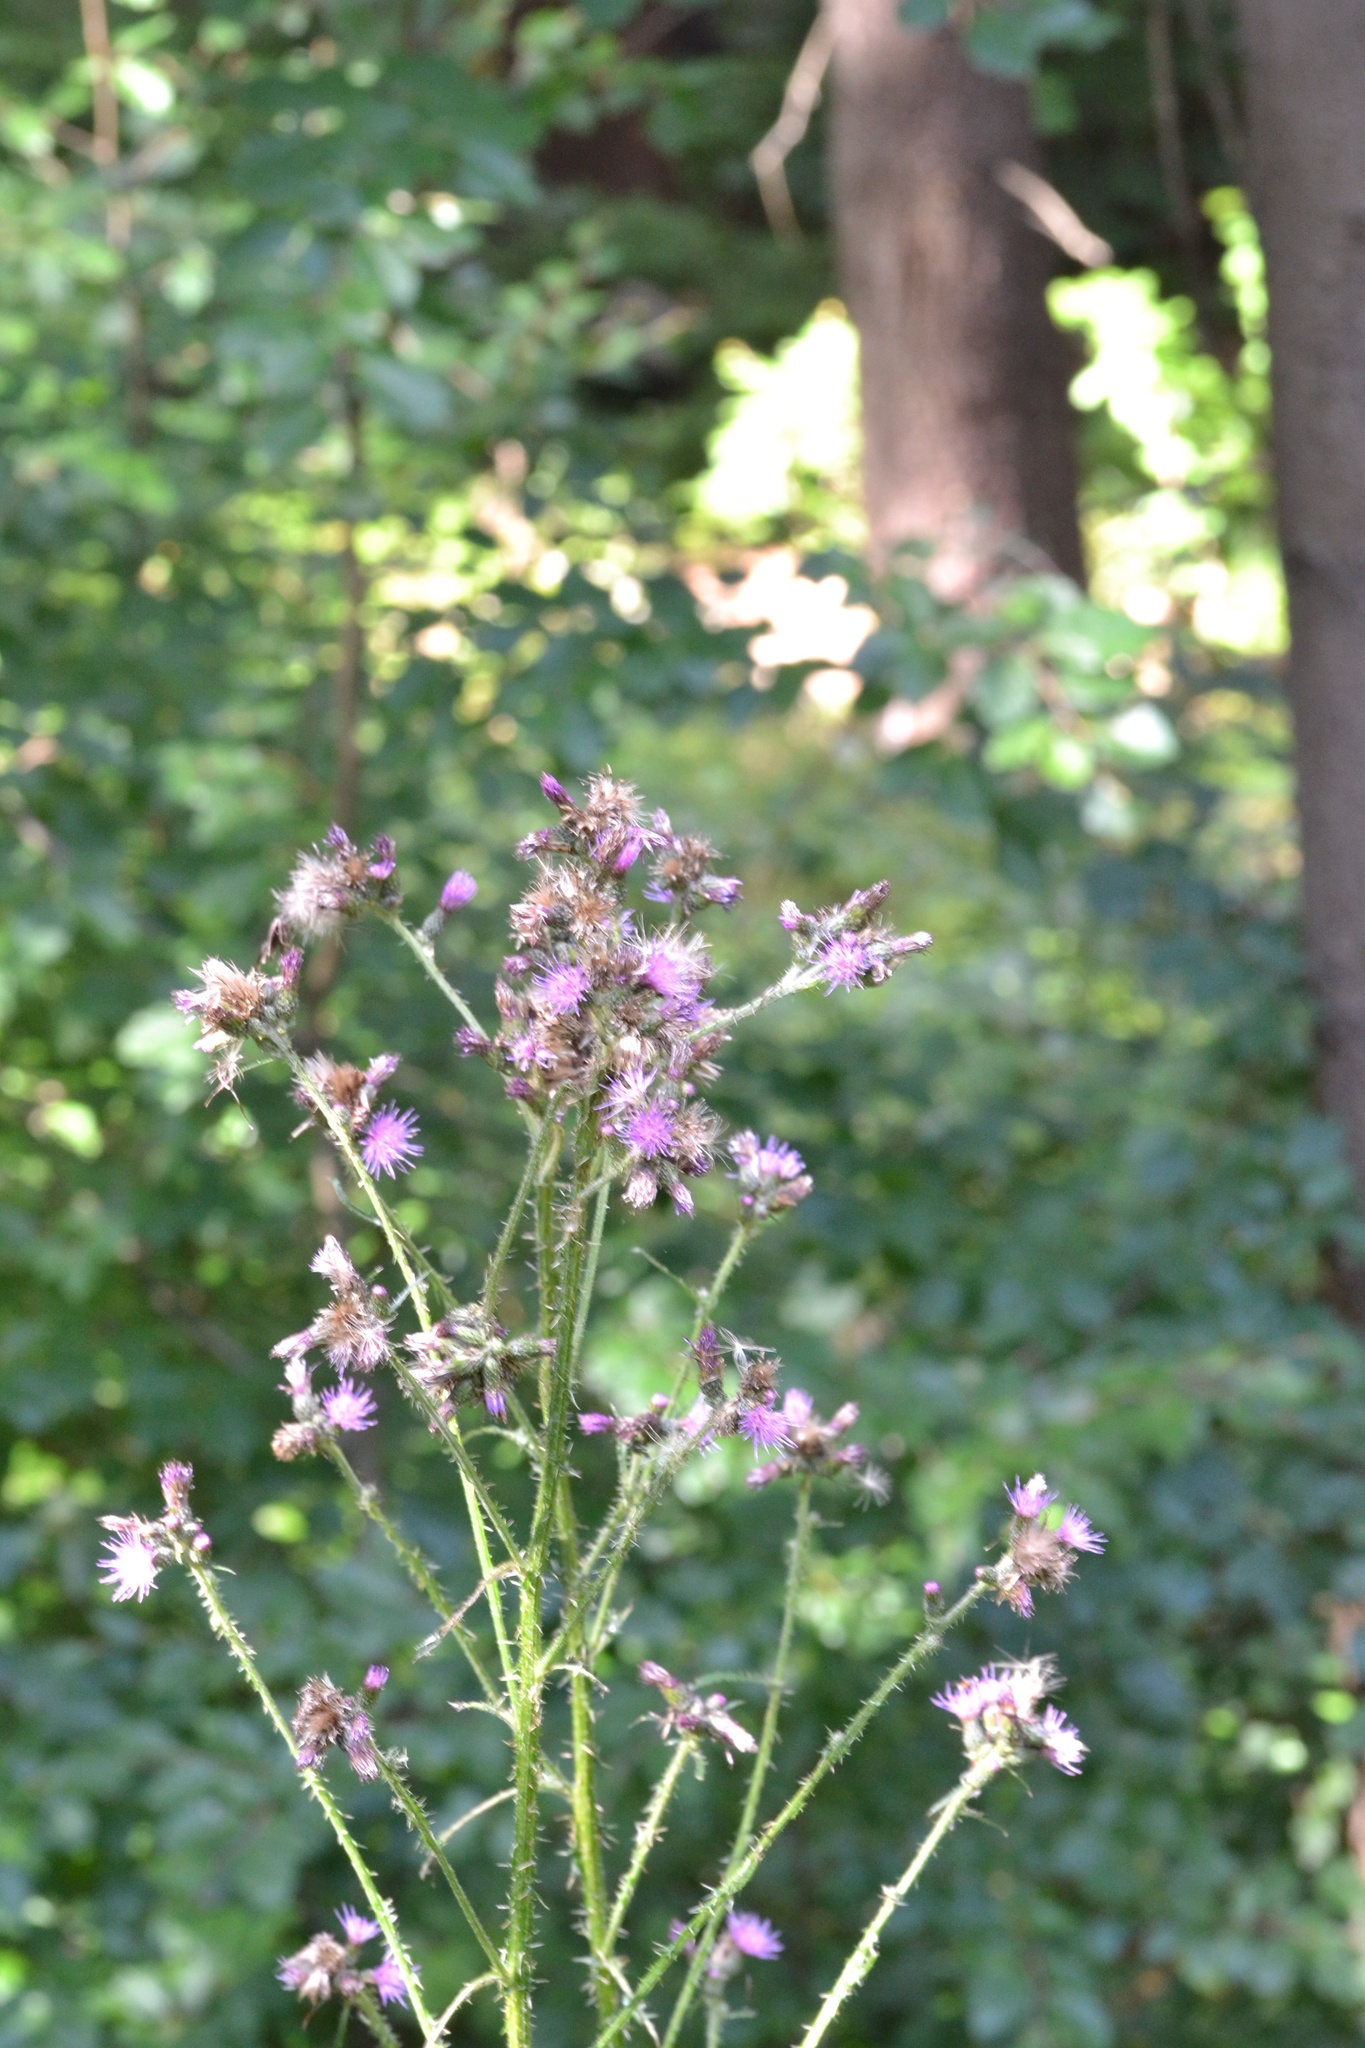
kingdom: Plantae
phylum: Tracheophyta
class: Magnoliopsida
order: Asterales
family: Asteraceae
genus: Cirsium
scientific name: Cirsium palustre
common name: Marsh thistle
